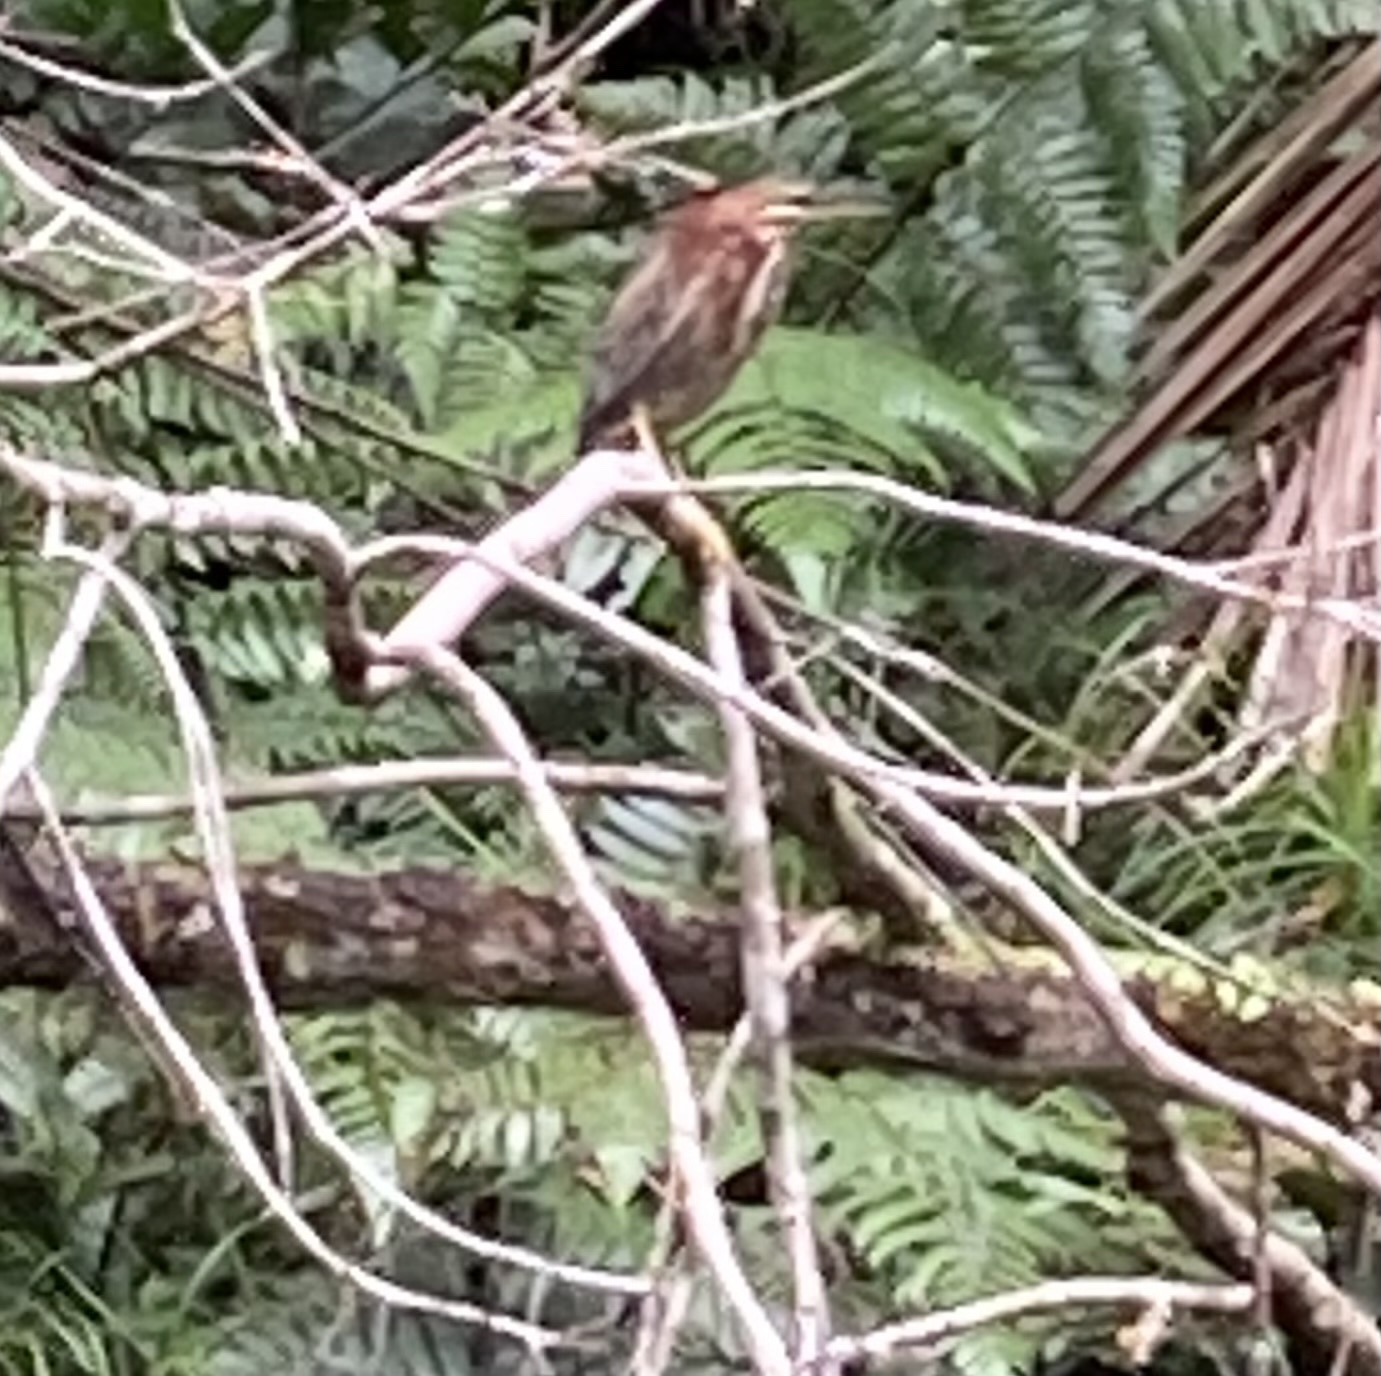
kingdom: Animalia
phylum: Chordata
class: Aves
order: Pelecaniformes
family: Ardeidae
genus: Butorides
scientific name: Butorides virescens
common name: Green heron
